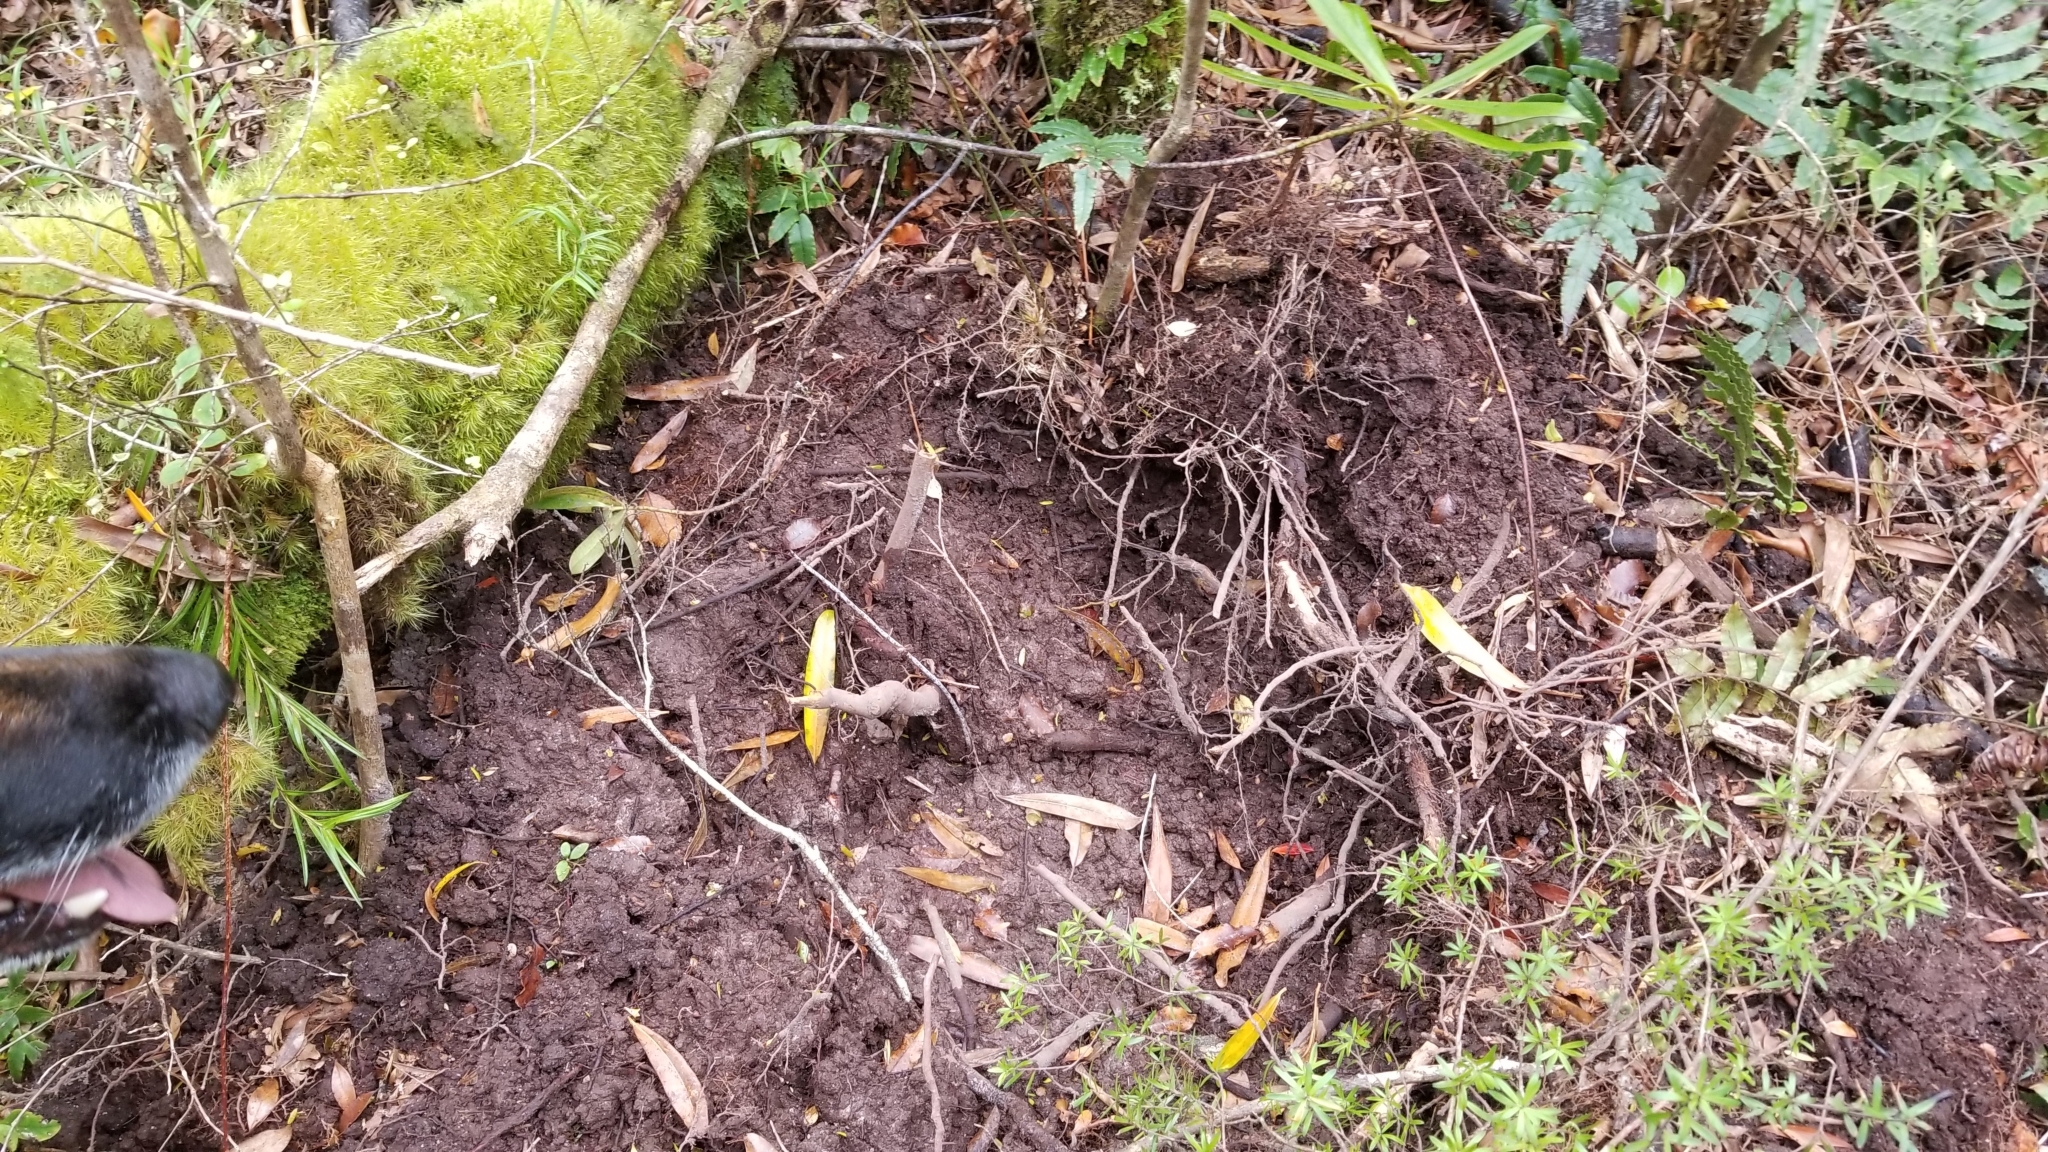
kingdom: Animalia
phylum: Chordata
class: Mammalia
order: Artiodactyla
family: Suidae
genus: Sus
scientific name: Sus scrofa
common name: Wild boar
